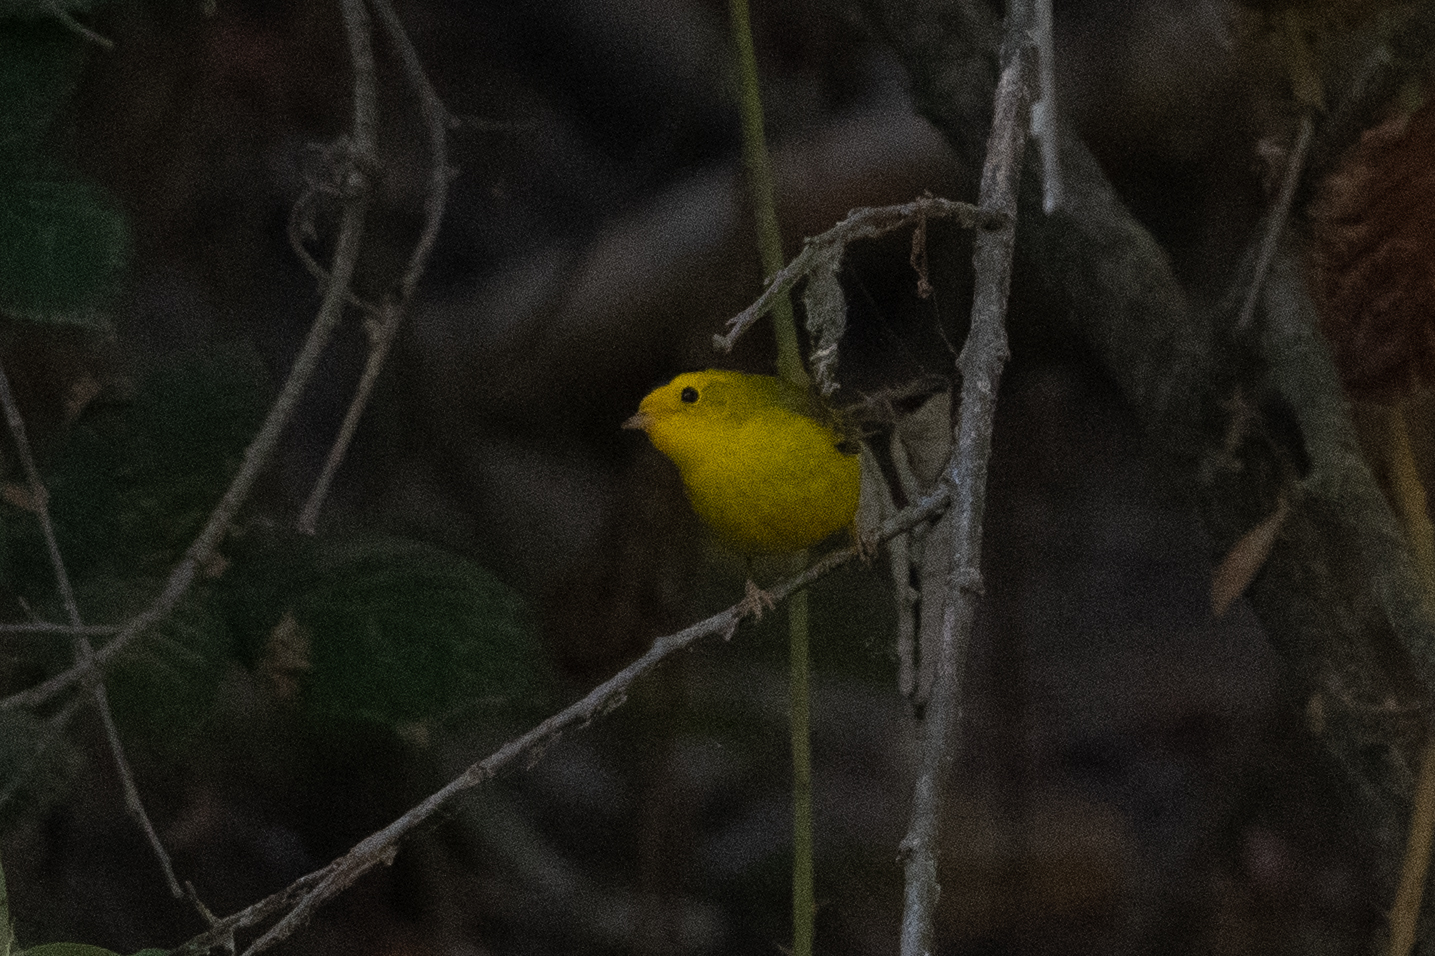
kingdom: Animalia
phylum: Chordata
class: Aves
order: Passeriformes
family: Parulidae
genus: Cardellina
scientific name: Cardellina pusilla
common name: Wilson's warbler
